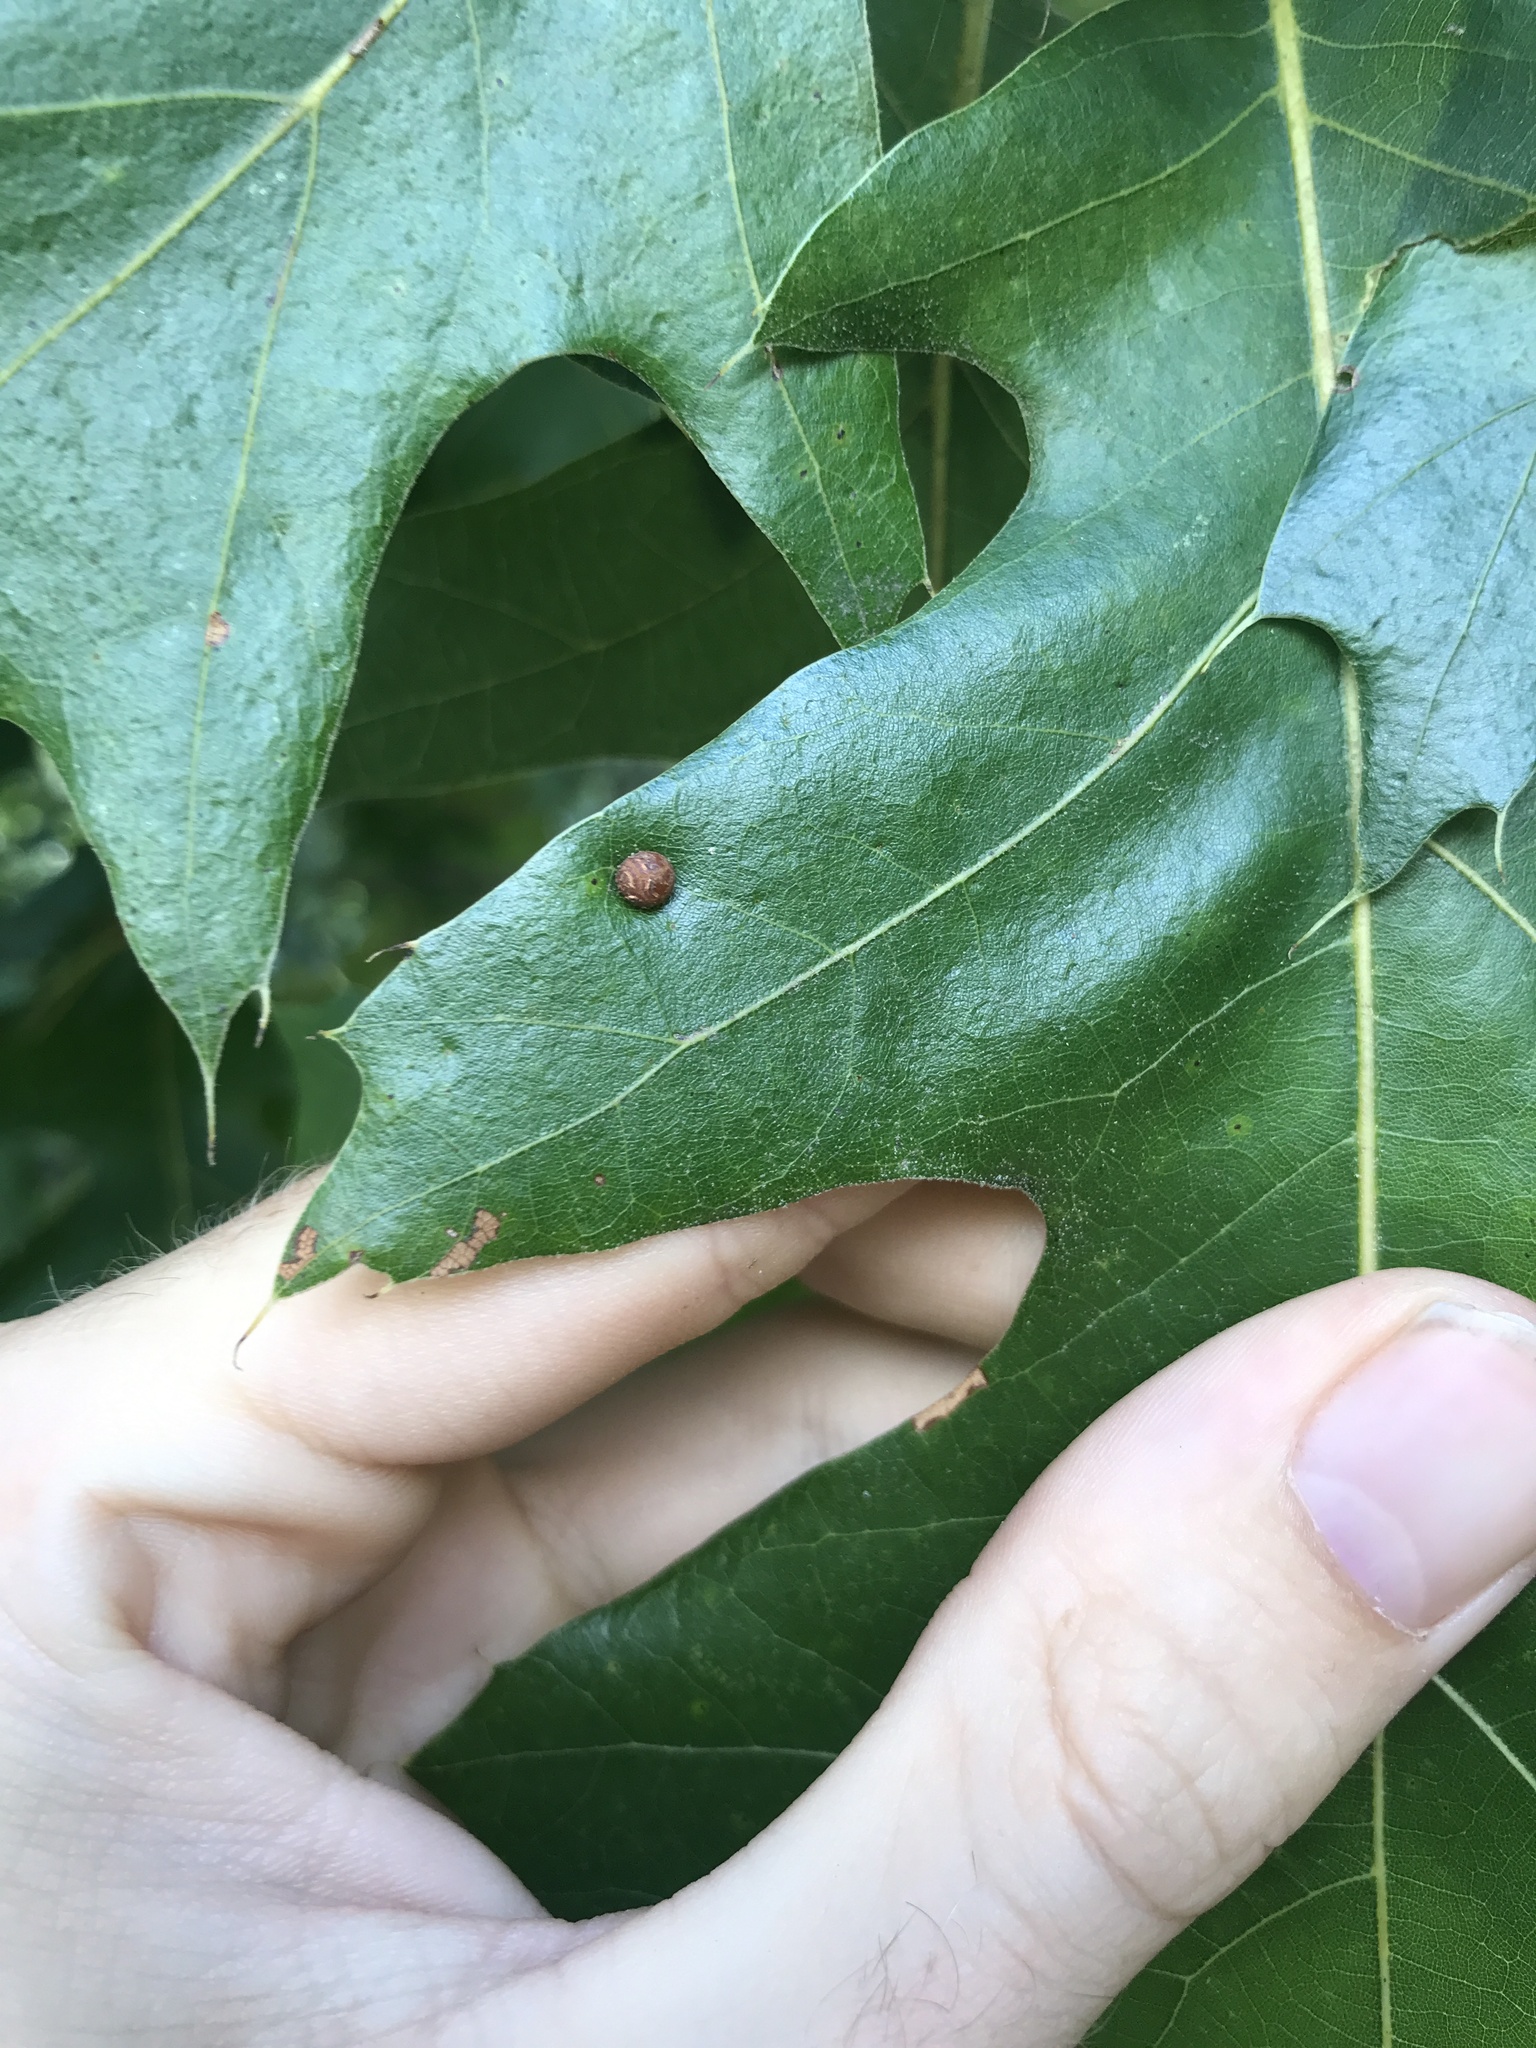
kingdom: Animalia
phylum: Arthropoda
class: Insecta
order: Diptera
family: Cecidomyiidae
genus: Polystepha
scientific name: Polystepha pilulae
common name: Oak leaf gall midge
